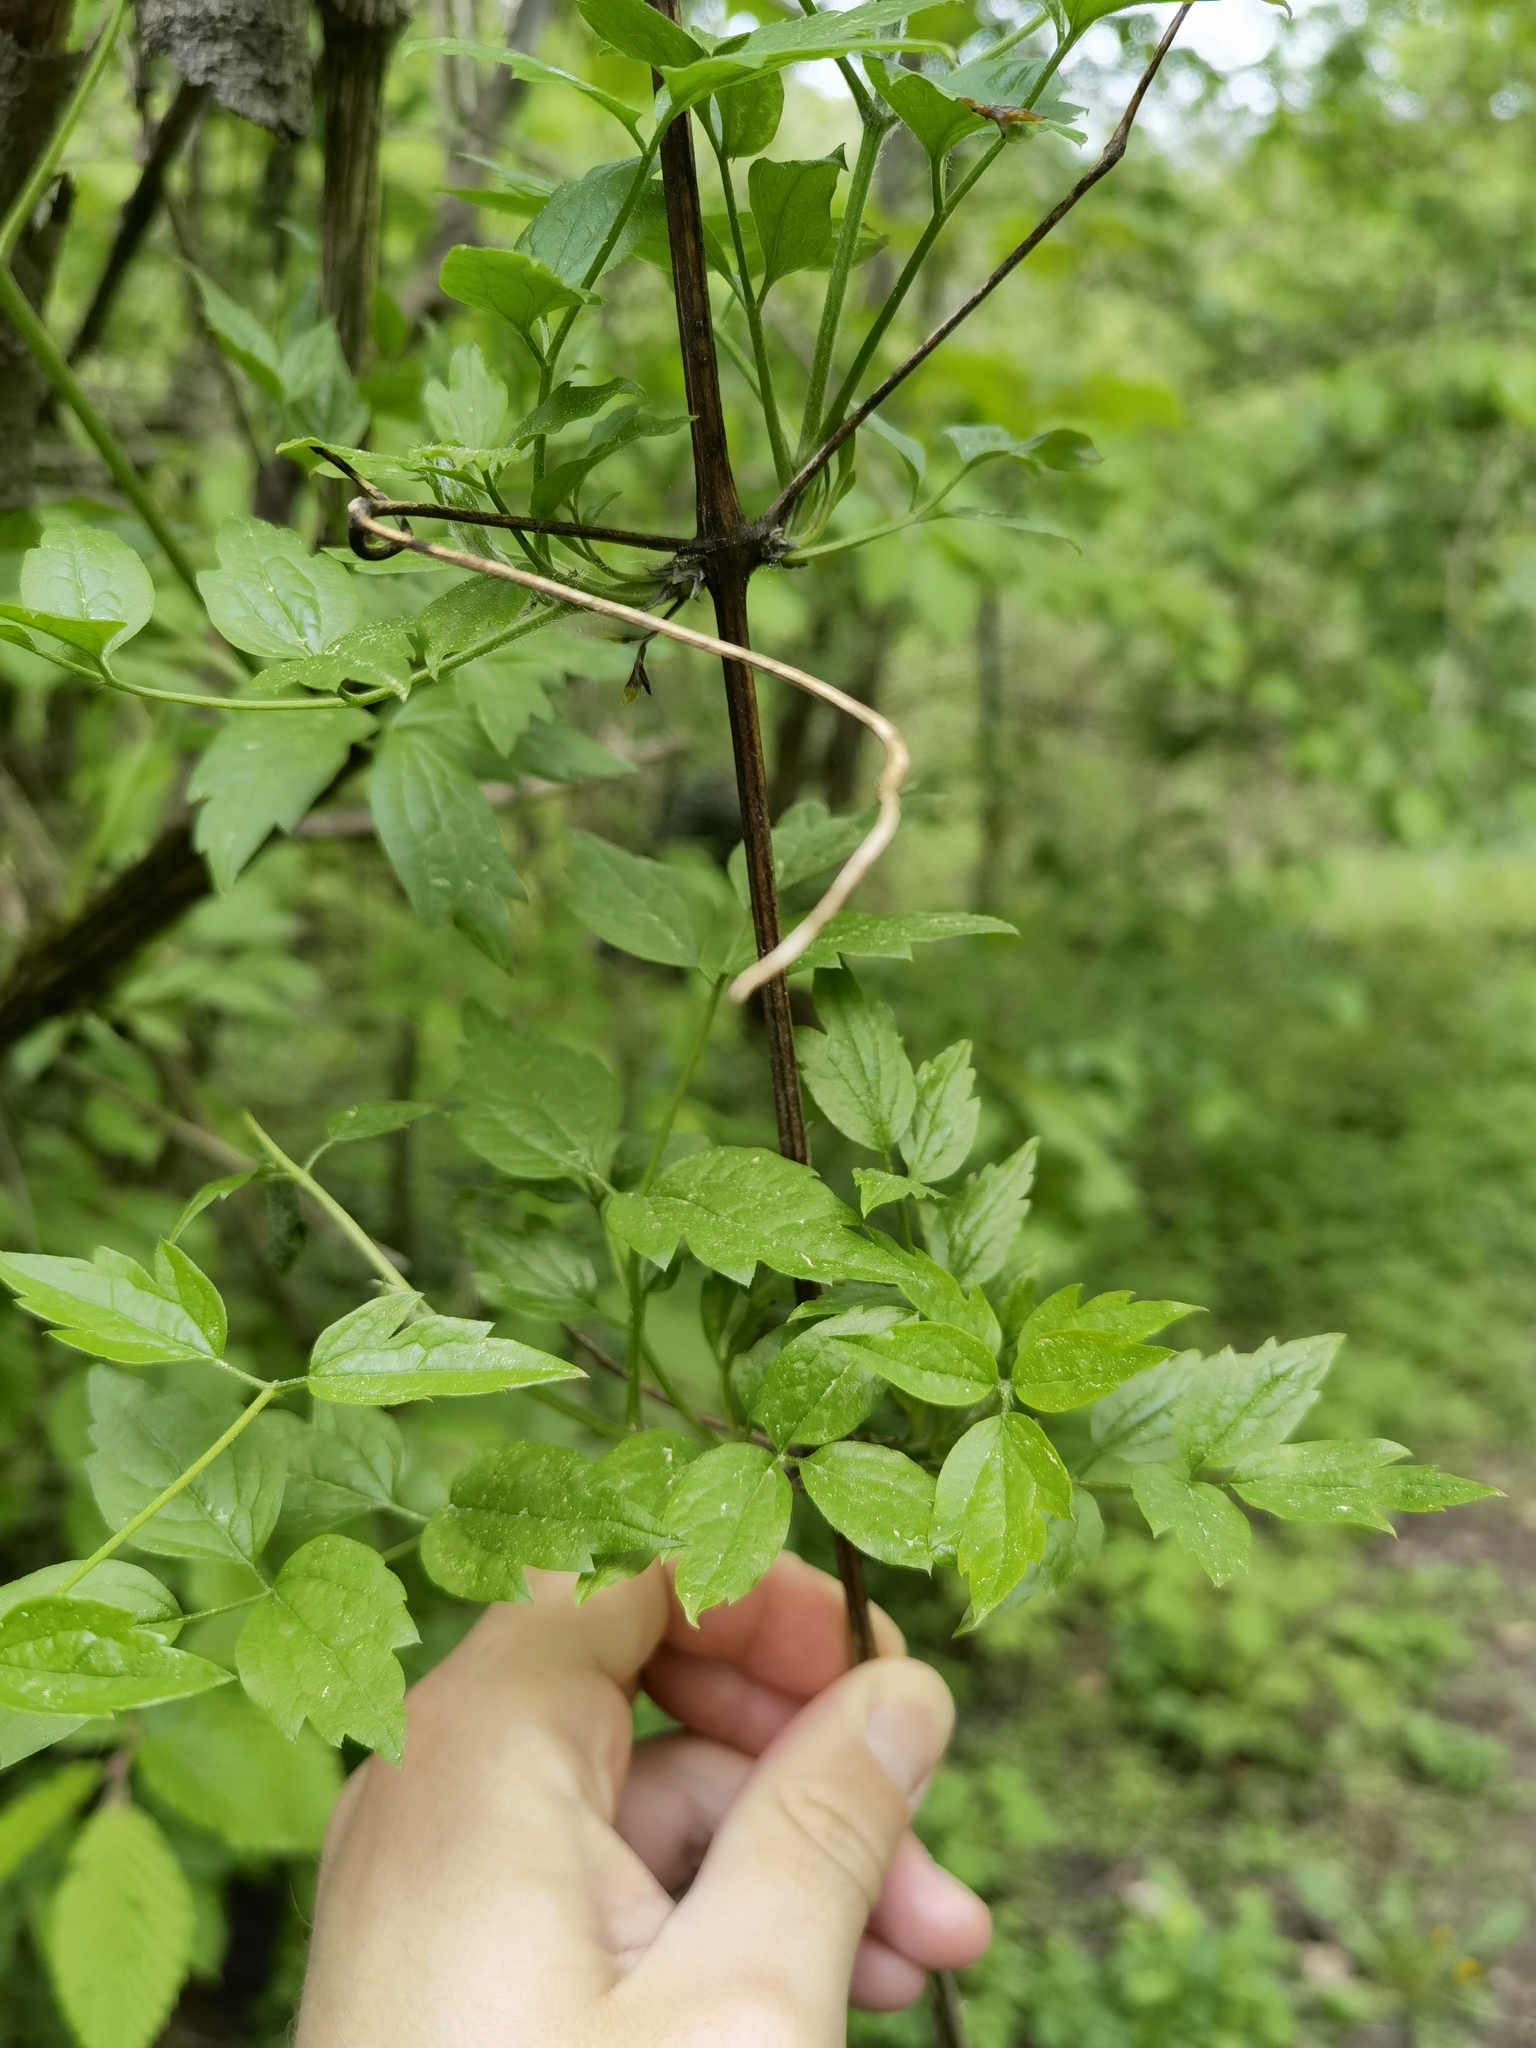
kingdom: Plantae
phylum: Tracheophyta
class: Magnoliopsida
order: Ranunculales
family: Ranunculaceae
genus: Clematis
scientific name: Clematis vitalba
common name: Evergreen clematis
